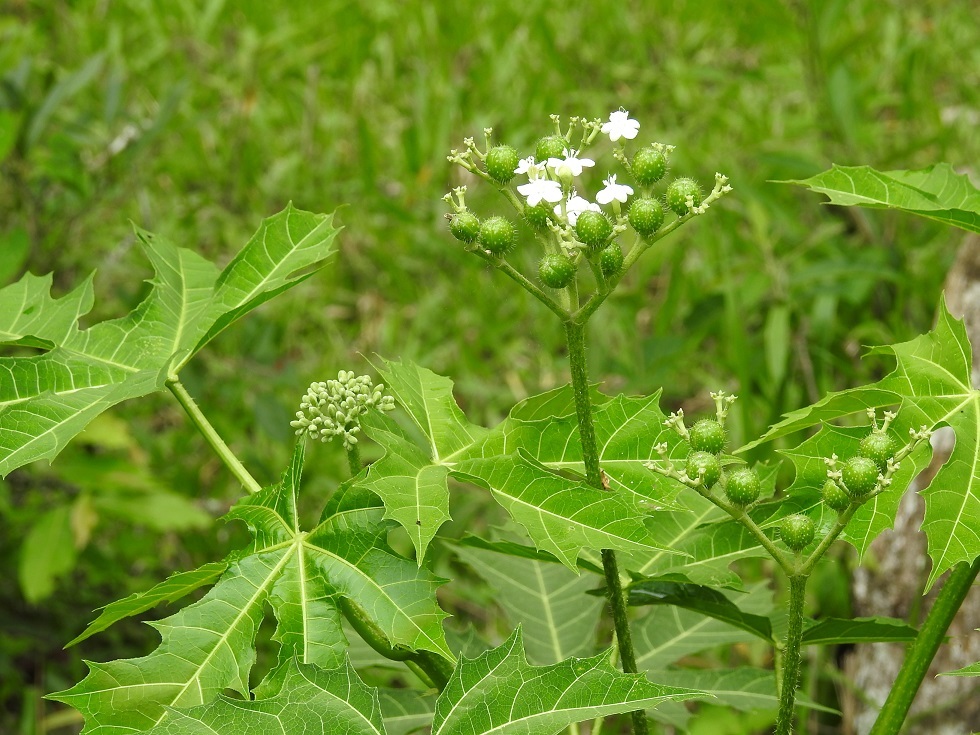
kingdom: Plantae
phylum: Tracheophyta
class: Magnoliopsida
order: Malpighiales
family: Euphorbiaceae
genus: Cnidoscolus
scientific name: Cnidoscolus aconitifolius
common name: Cabbage-star
